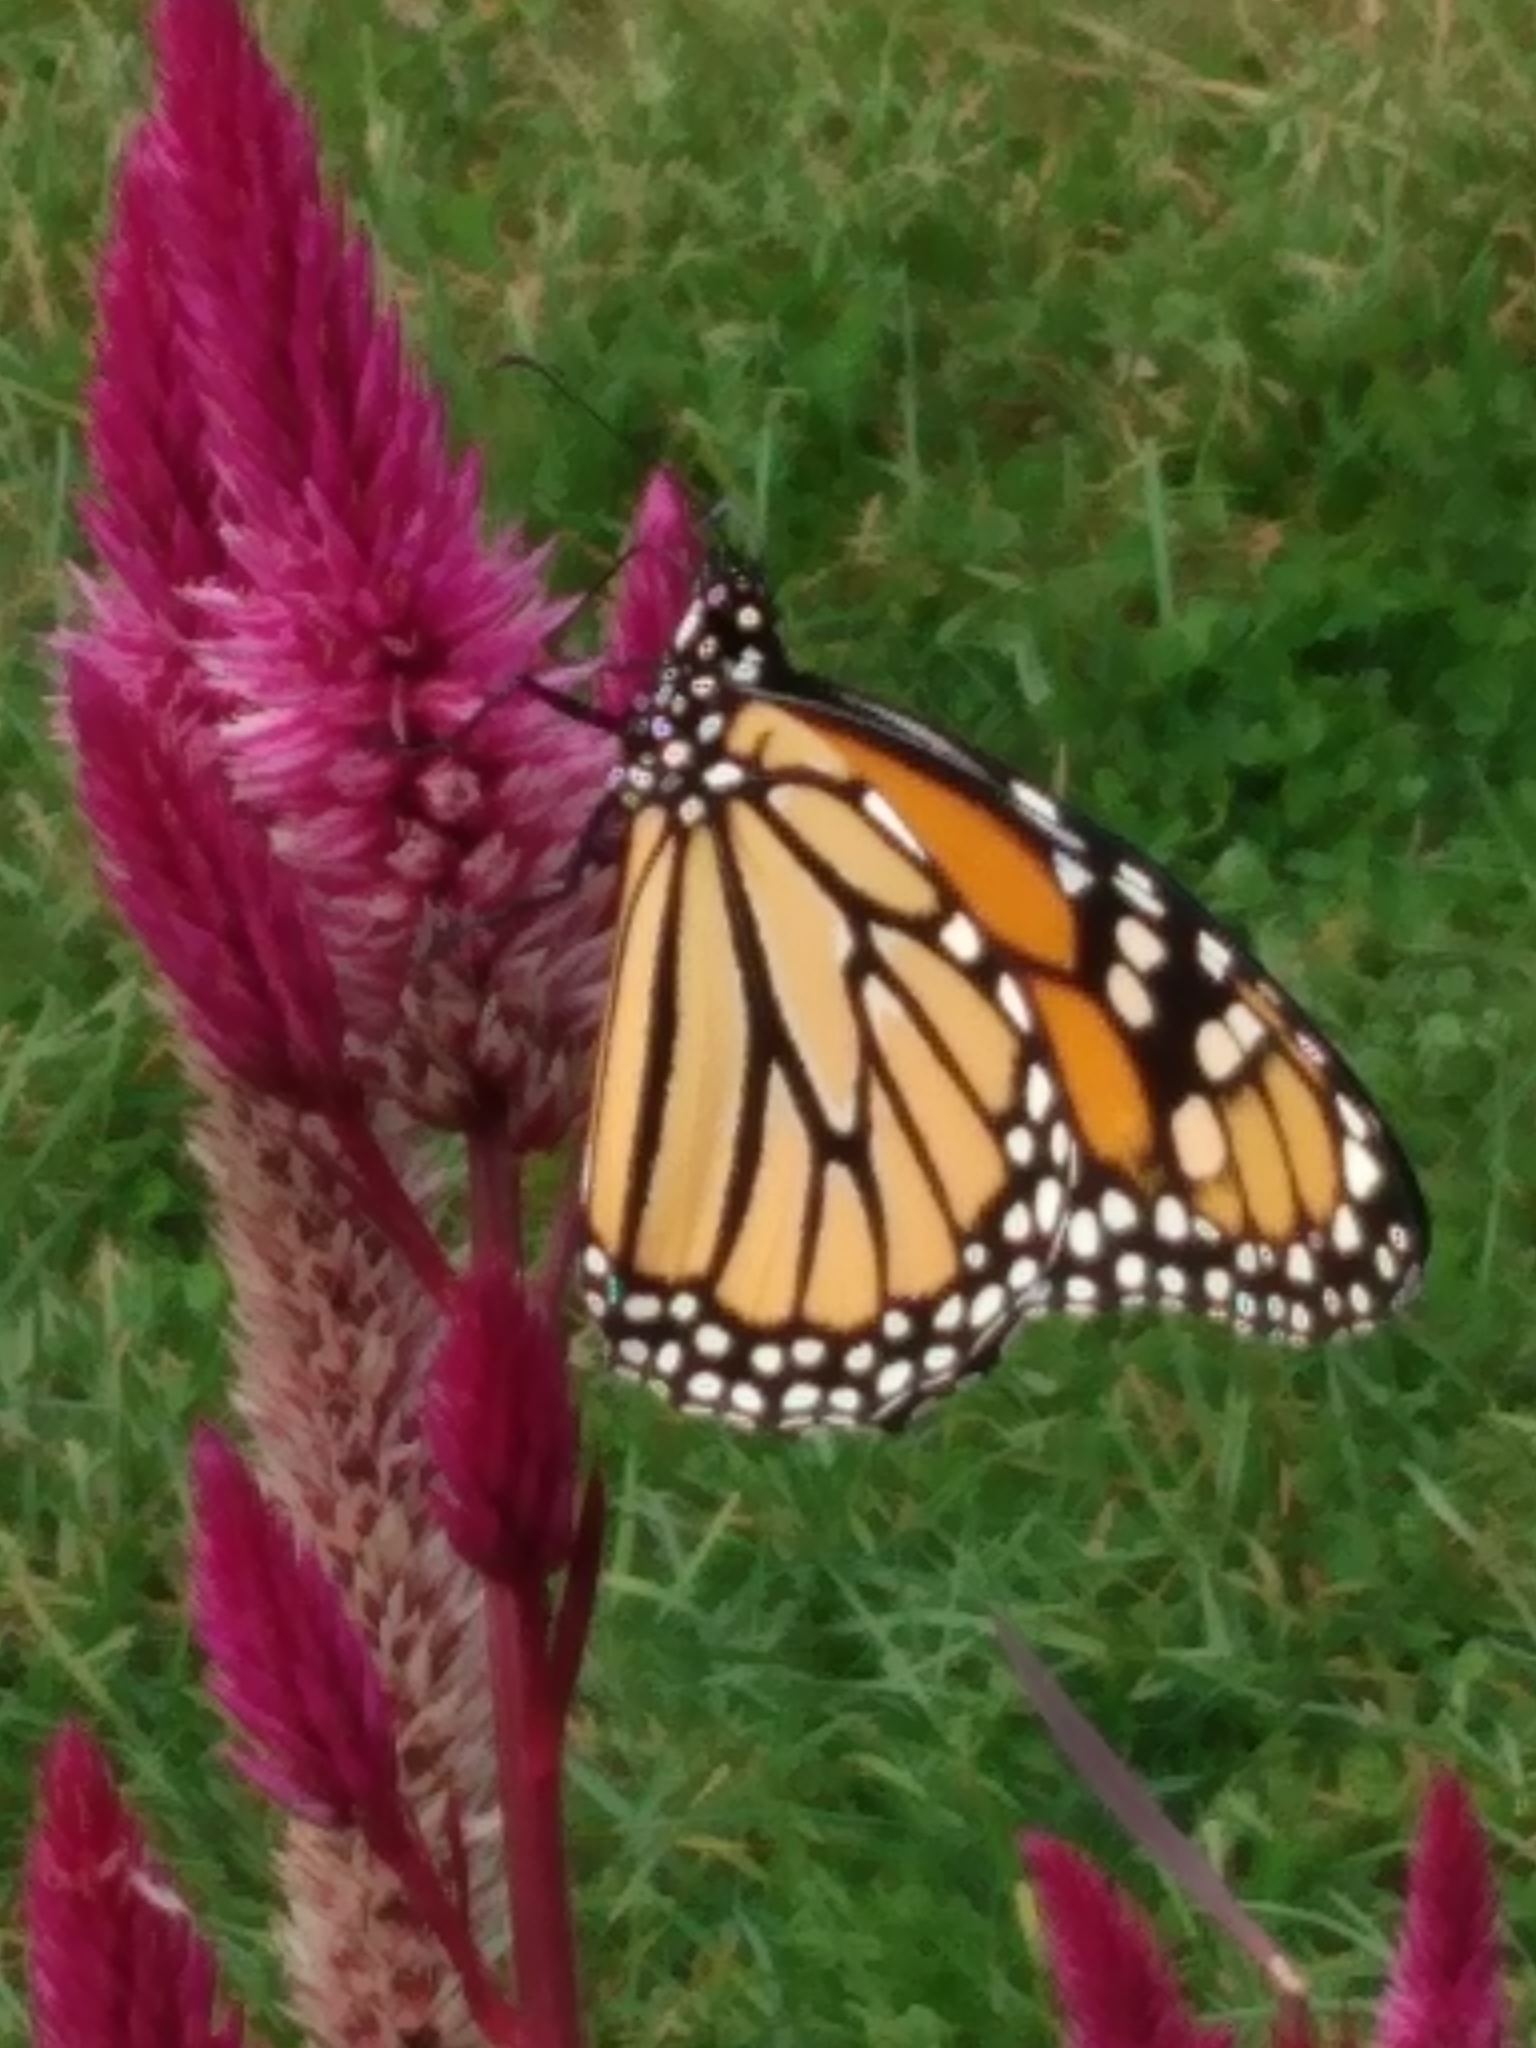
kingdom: Animalia
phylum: Arthropoda
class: Insecta
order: Lepidoptera
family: Nymphalidae
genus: Danaus
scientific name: Danaus plexippus
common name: Monarch
